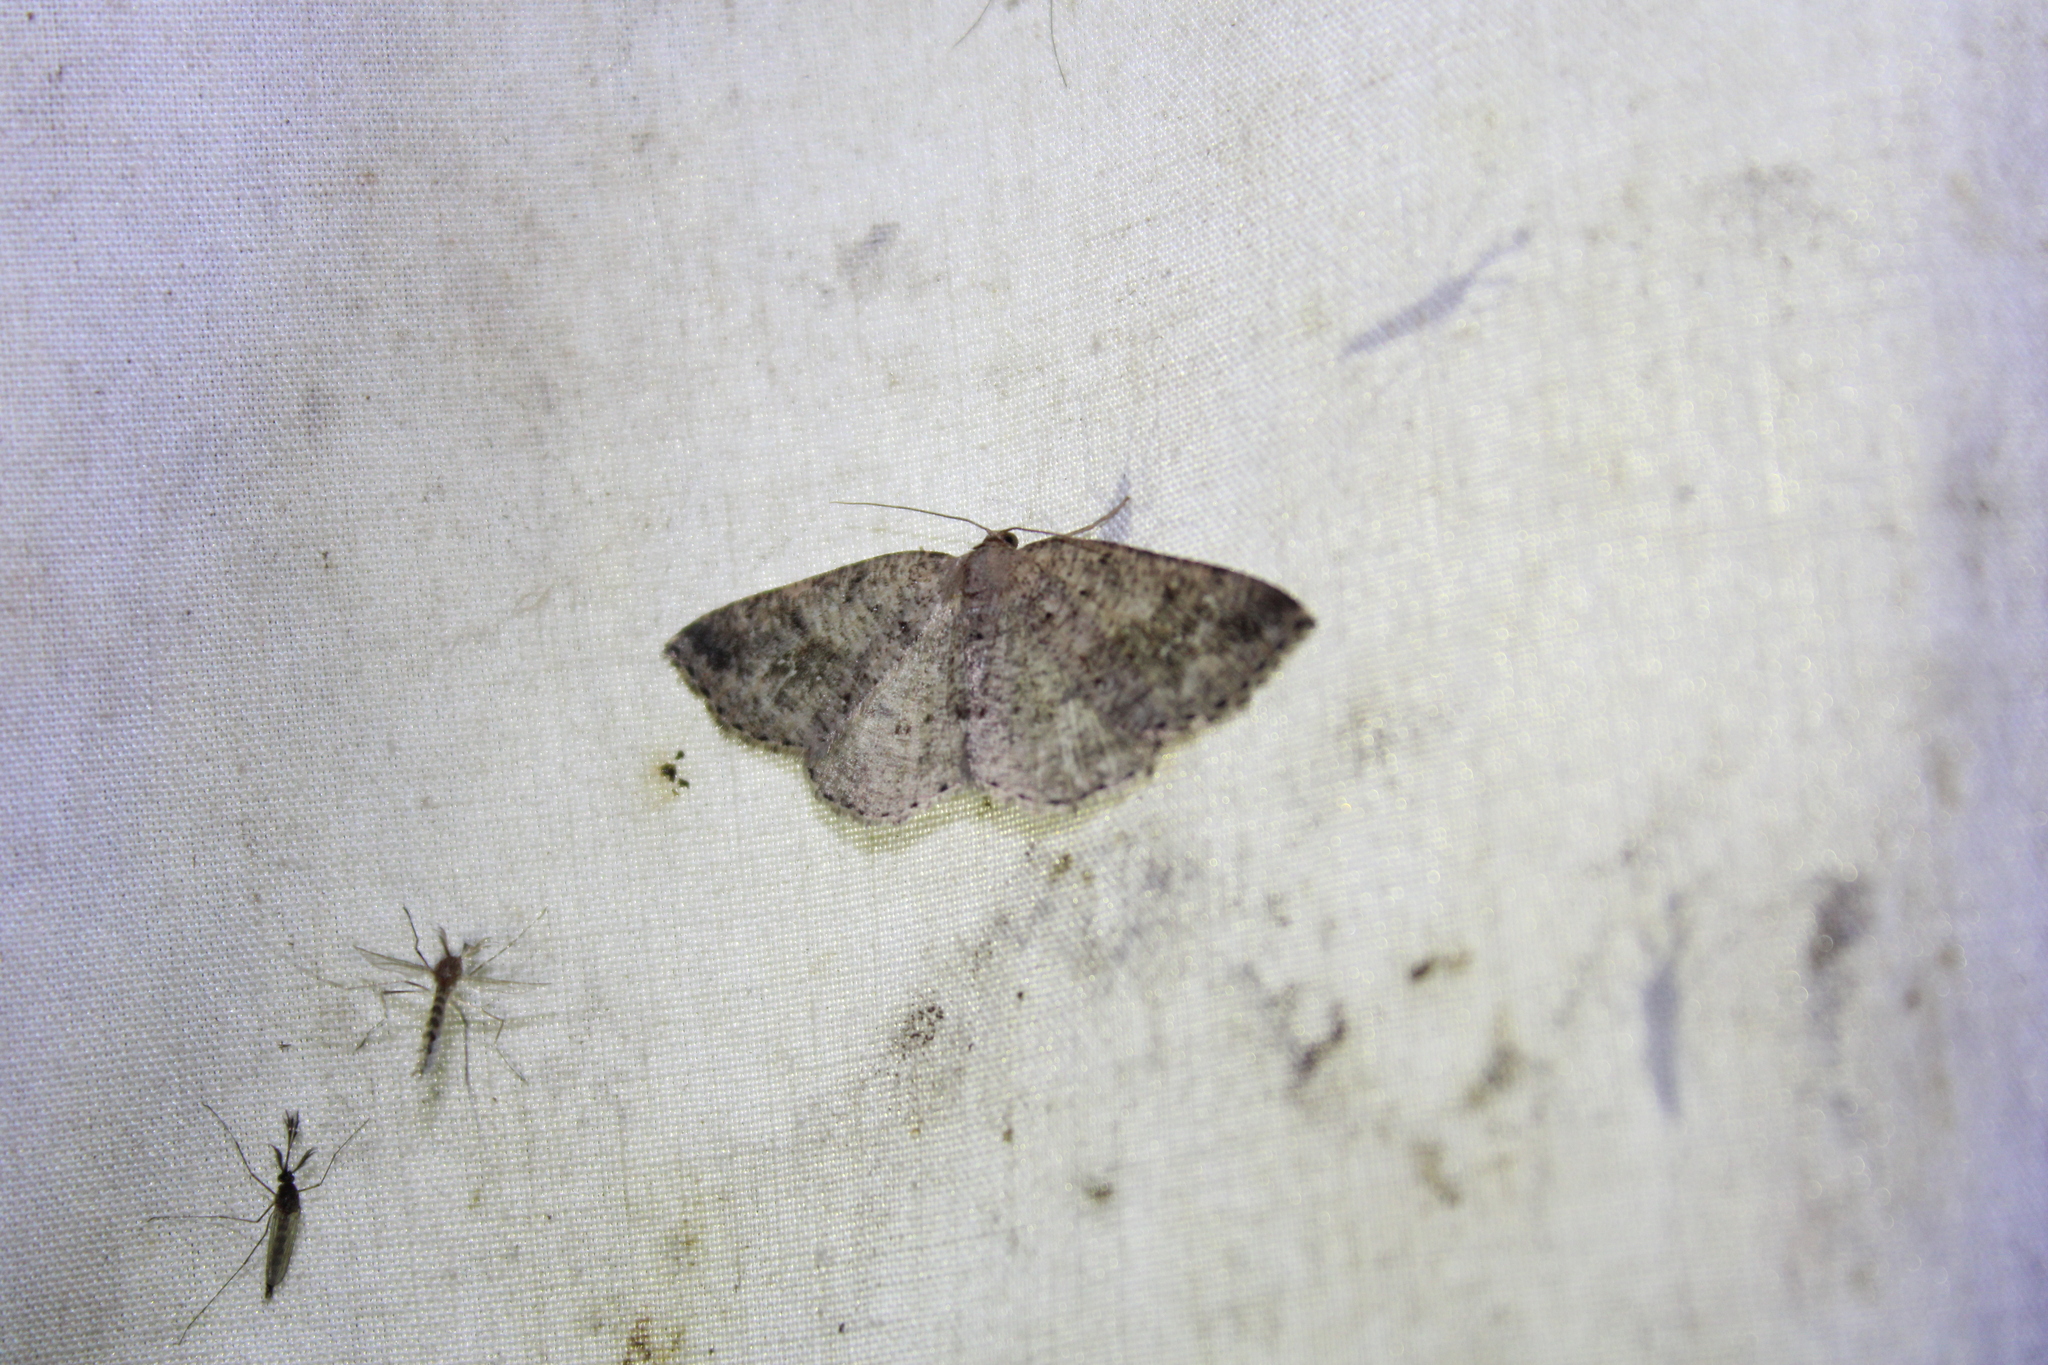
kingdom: Animalia
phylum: Arthropoda
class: Insecta
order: Lepidoptera
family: Geometridae
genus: Homochlodes
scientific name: Homochlodes fritillaria
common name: Pale homochlodes
